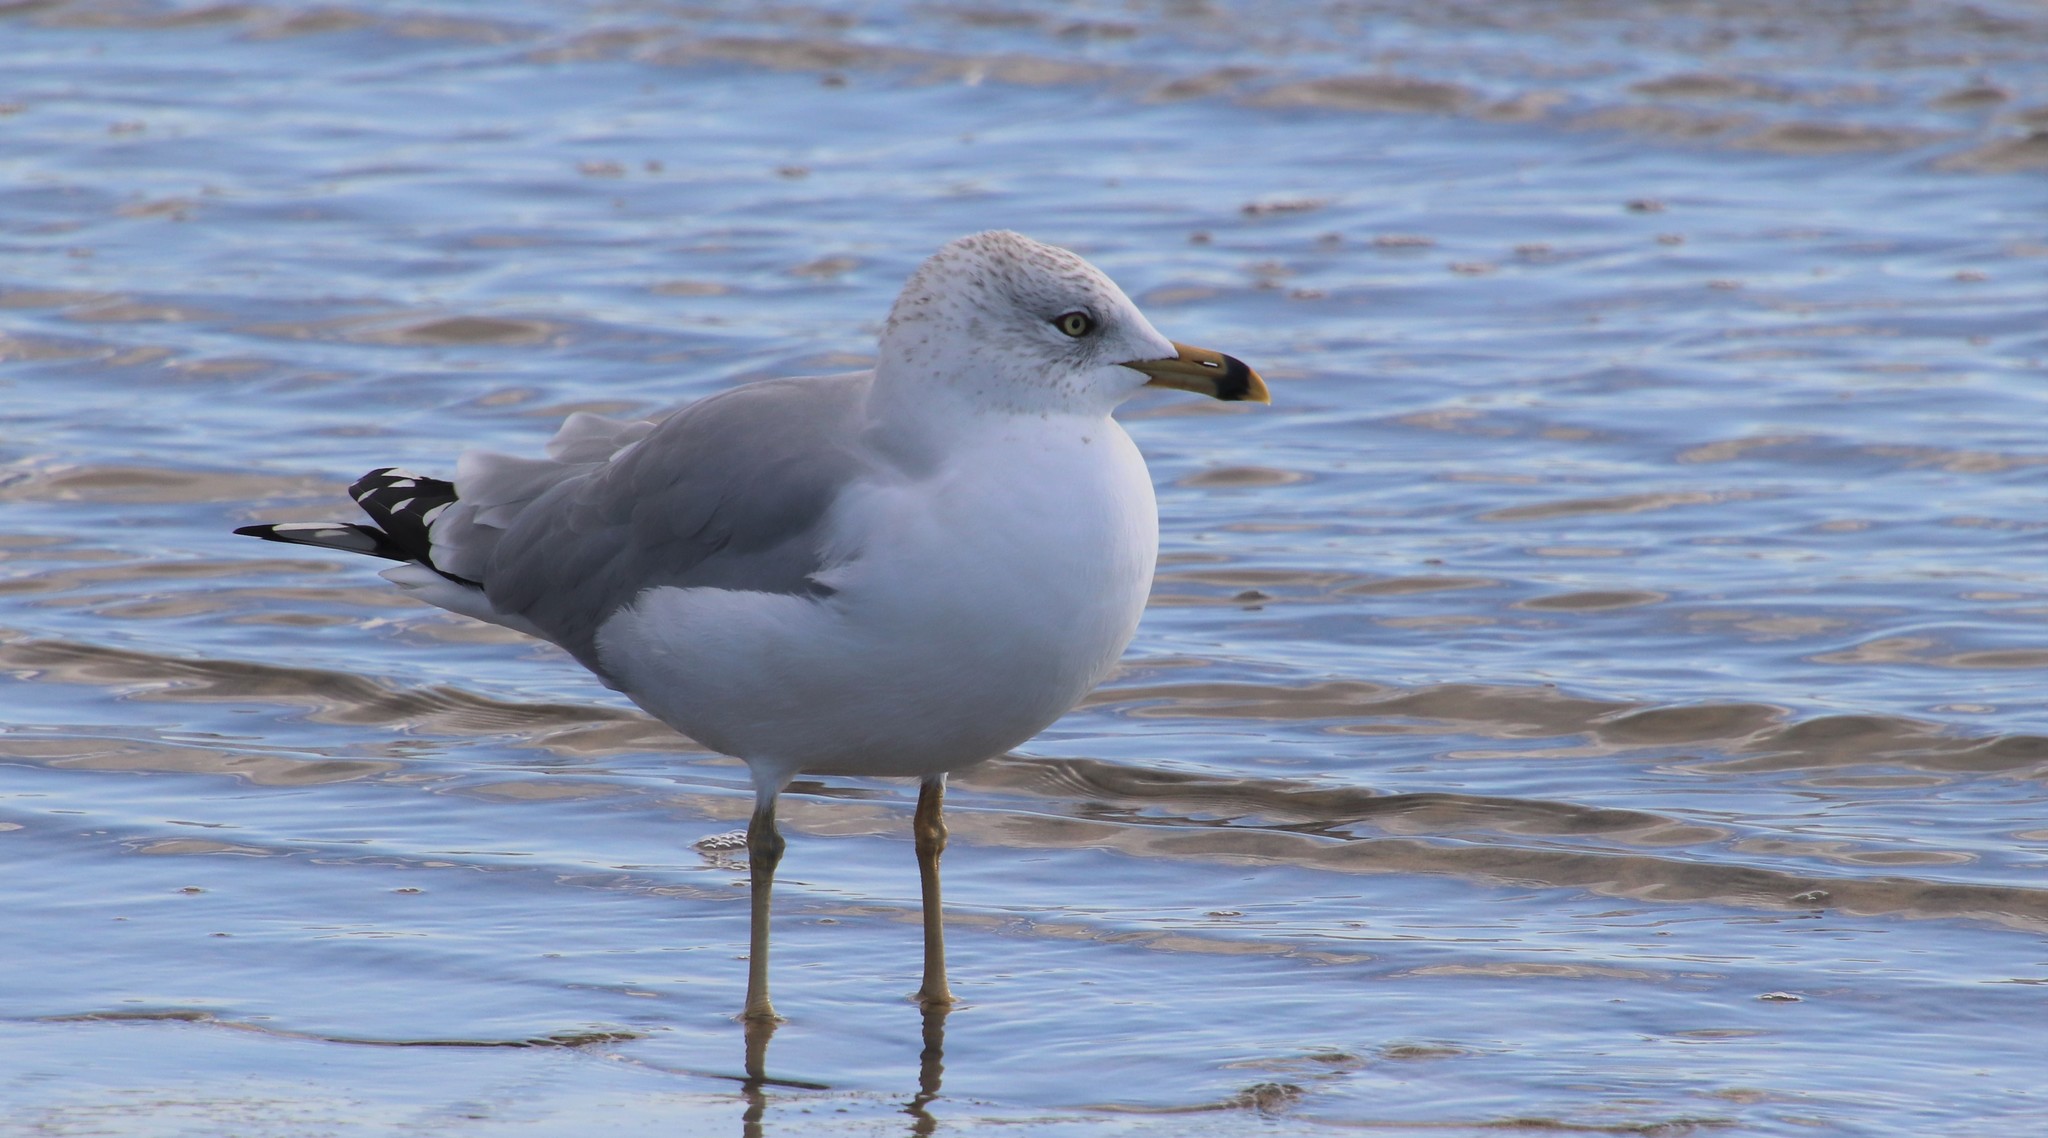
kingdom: Animalia
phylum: Chordata
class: Aves
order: Charadriiformes
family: Laridae
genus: Larus
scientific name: Larus delawarensis
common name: Ring-billed gull
